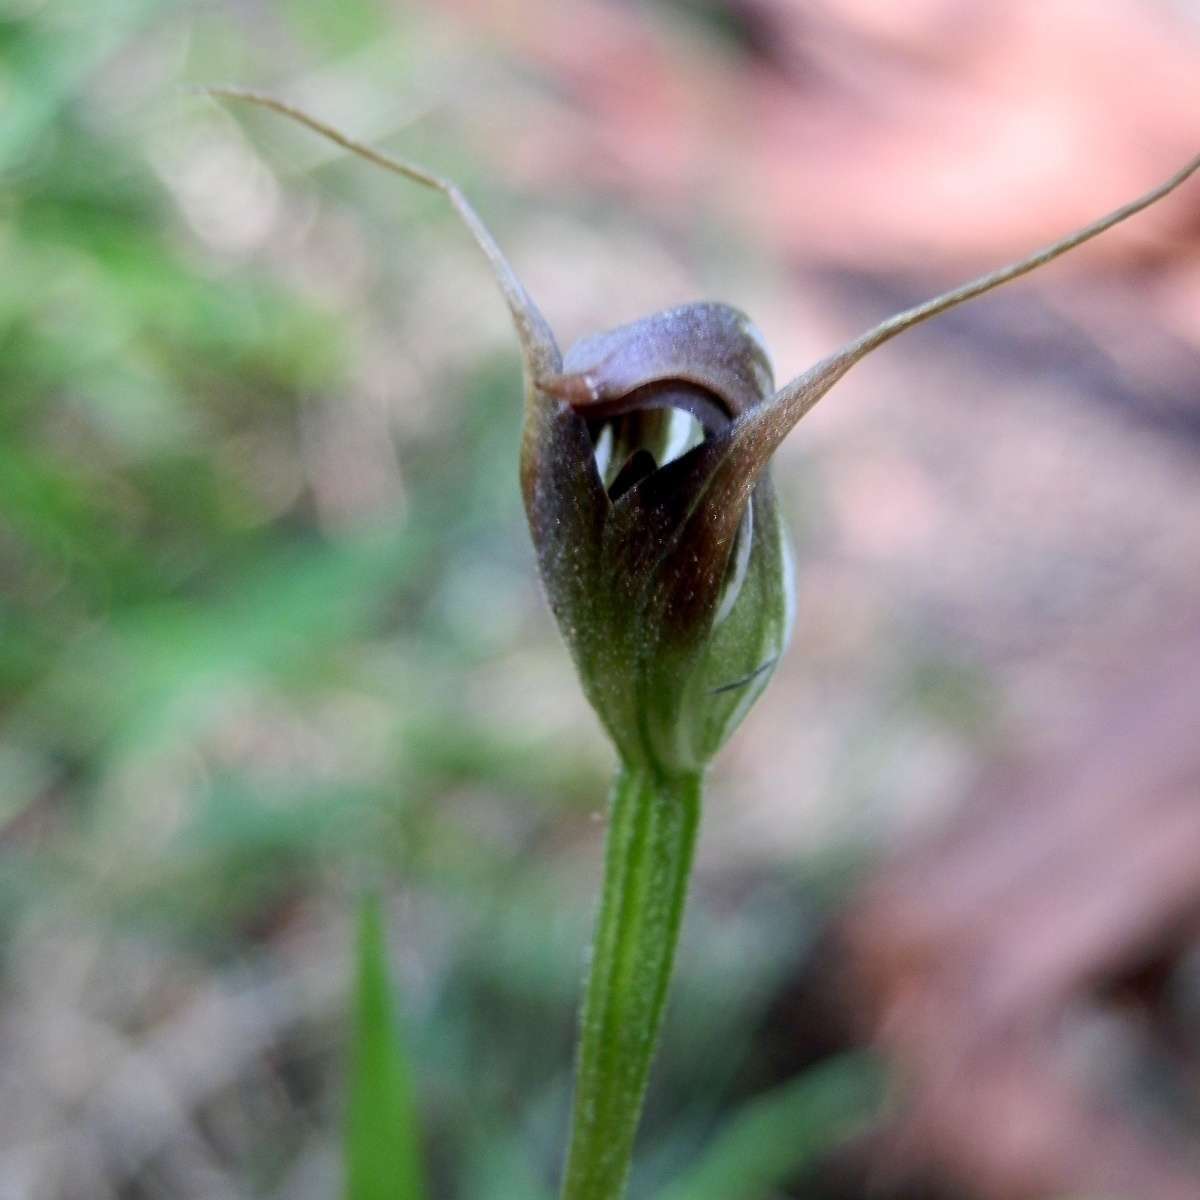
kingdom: Plantae
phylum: Tracheophyta
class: Liliopsida
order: Asparagales
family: Orchidaceae
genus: Pterostylis
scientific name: Pterostylis pedunculata
